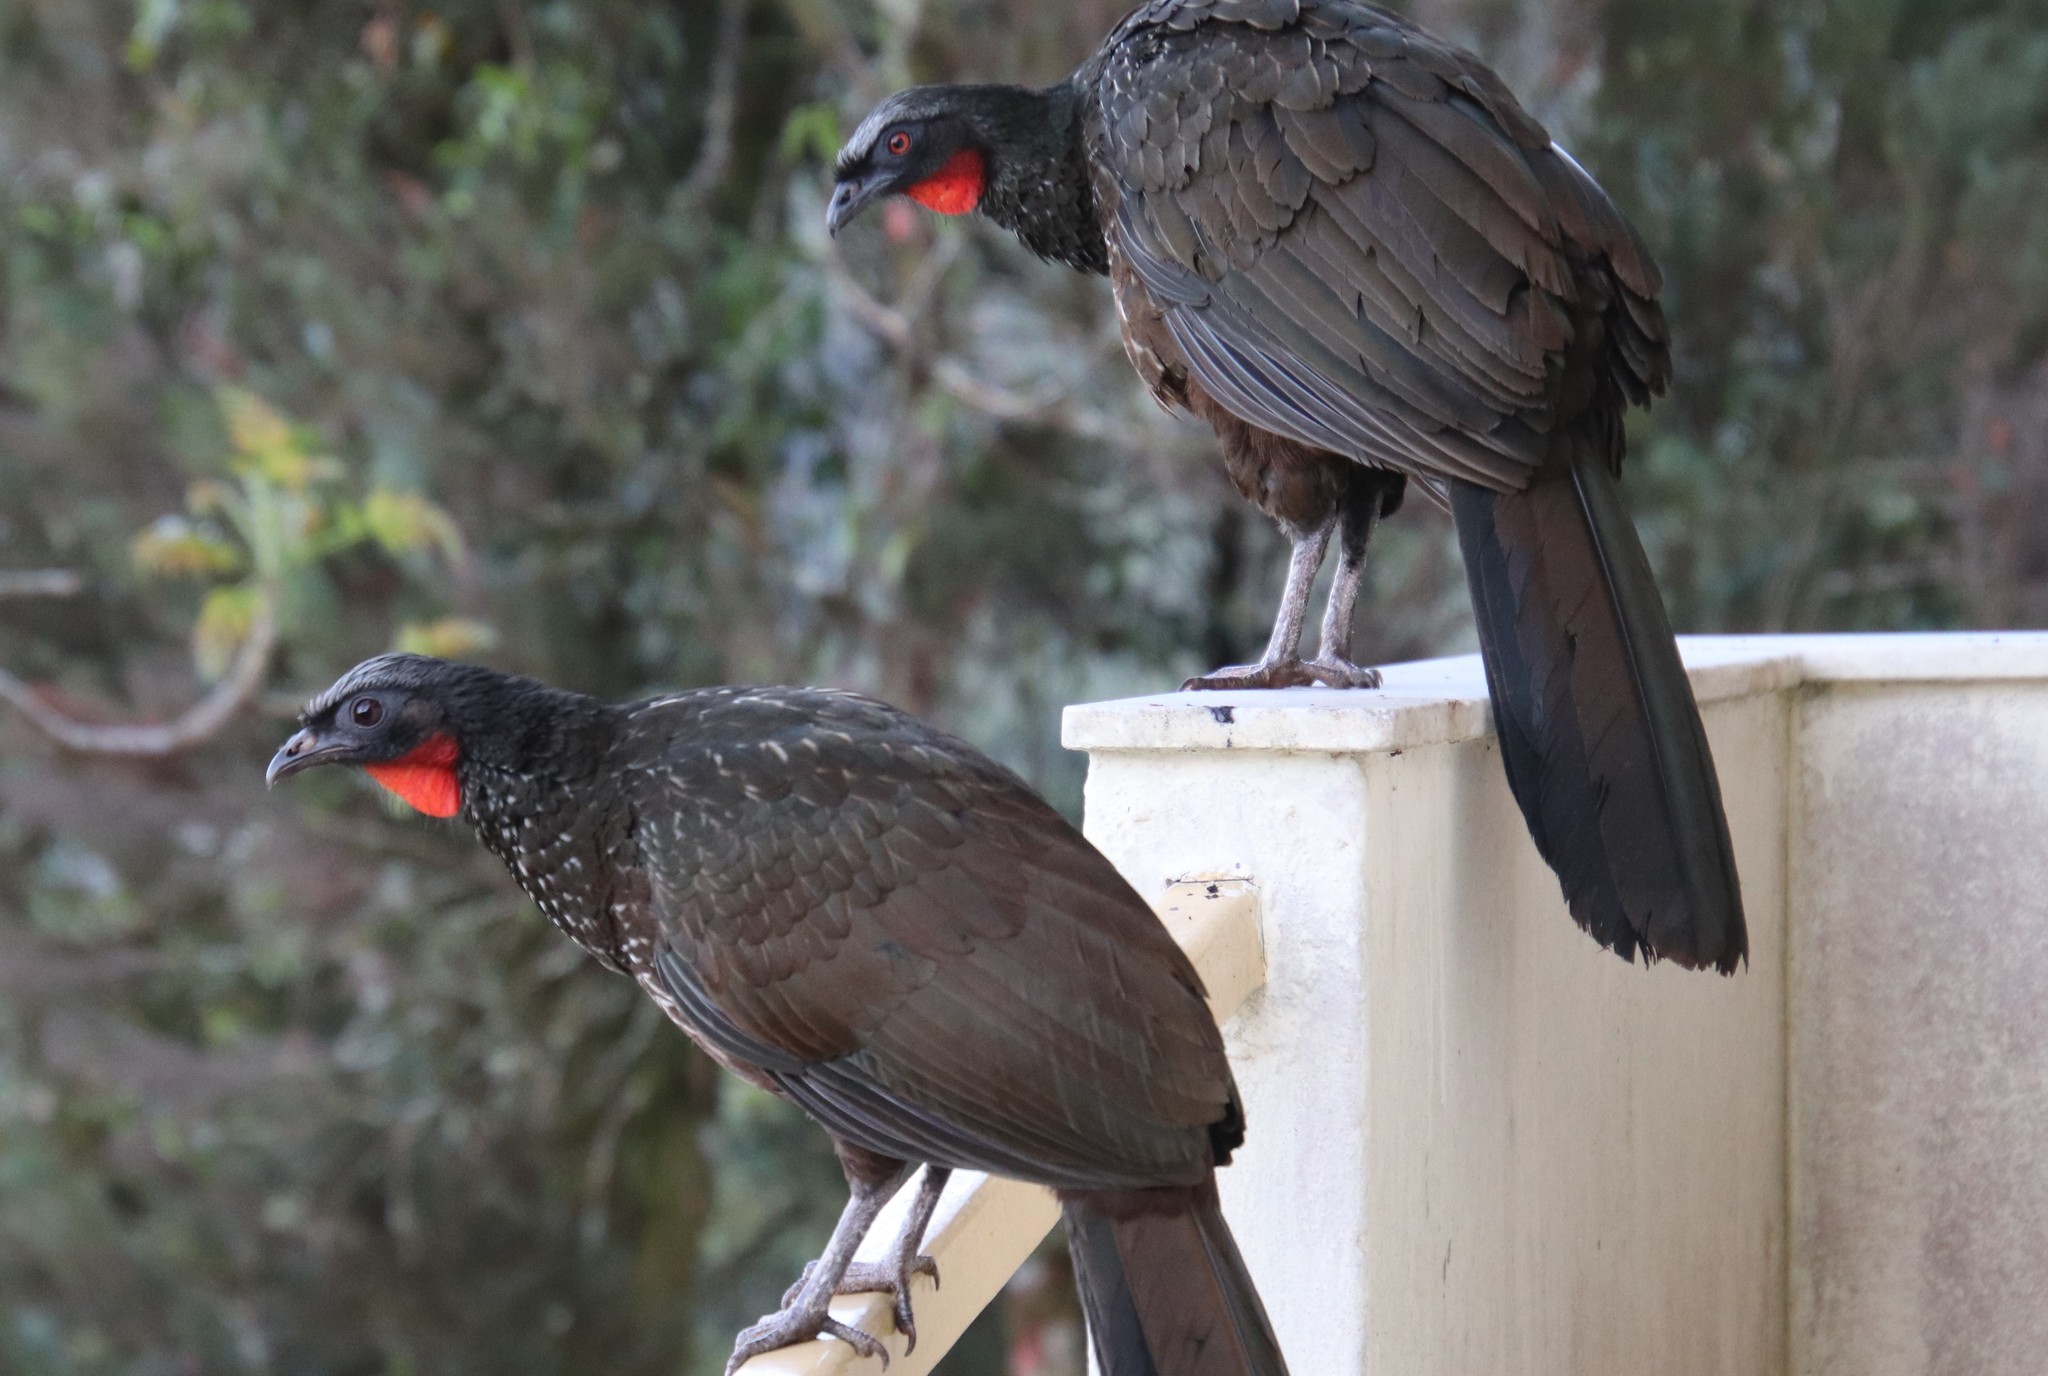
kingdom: Animalia
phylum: Chordata
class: Aves
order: Galliformes
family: Cracidae
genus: Penelope
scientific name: Penelope obscura
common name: Dusky-legged guan
